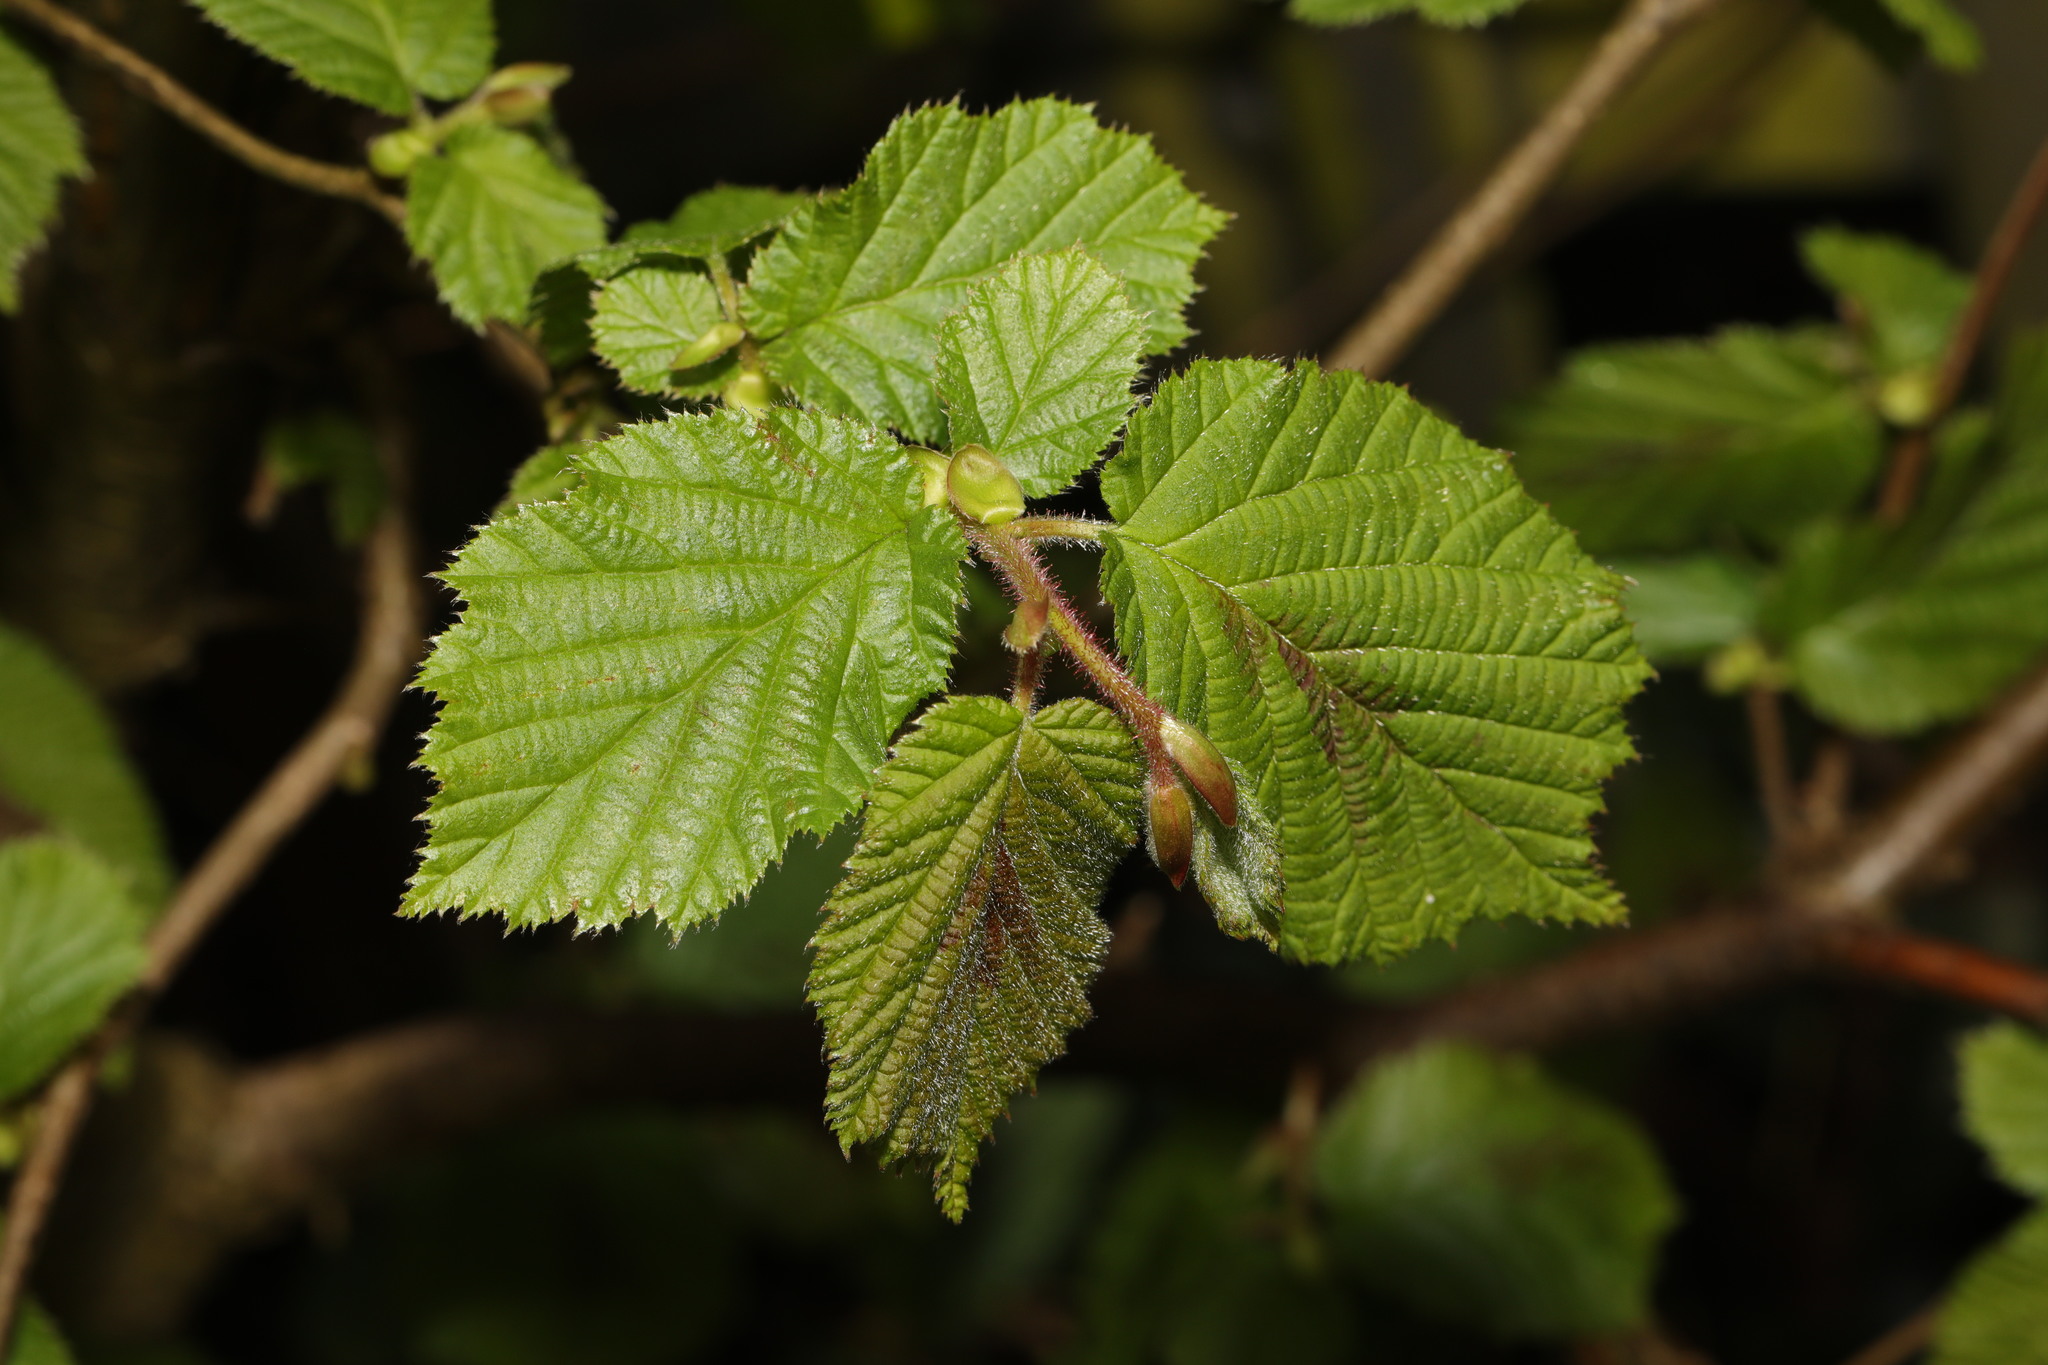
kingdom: Plantae
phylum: Tracheophyta
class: Magnoliopsida
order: Fagales
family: Betulaceae
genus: Corylus
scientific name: Corylus avellana
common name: European hazel
